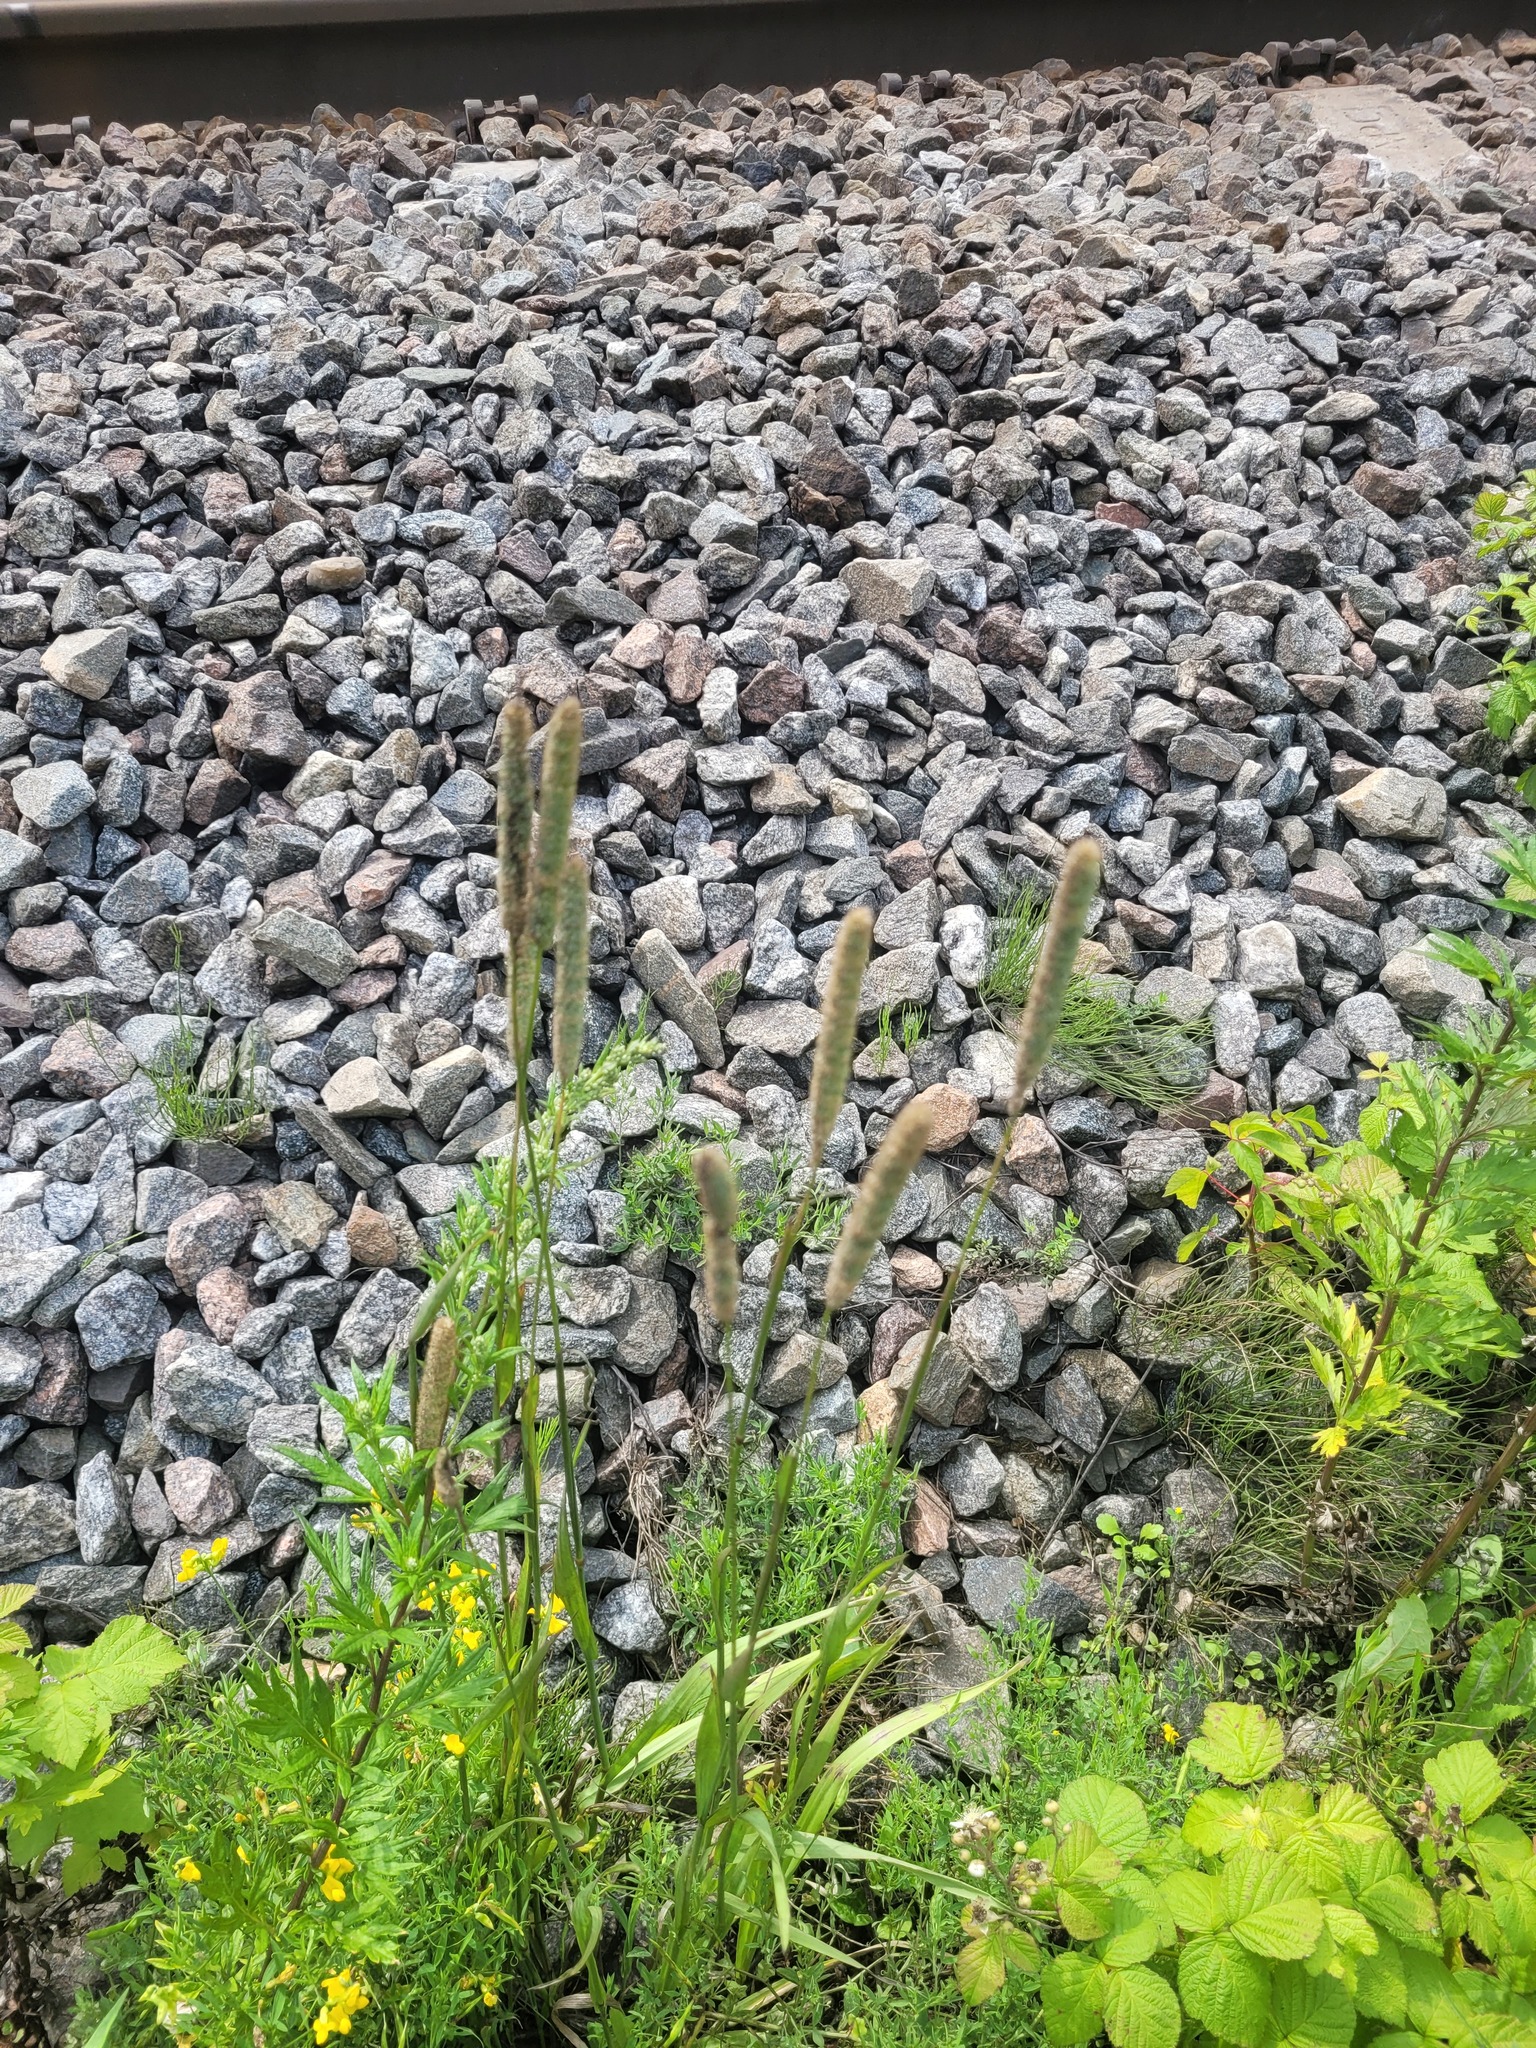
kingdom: Plantae
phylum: Tracheophyta
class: Liliopsida
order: Poales
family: Poaceae
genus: Phleum
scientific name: Phleum pratense
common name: Timothy grass
